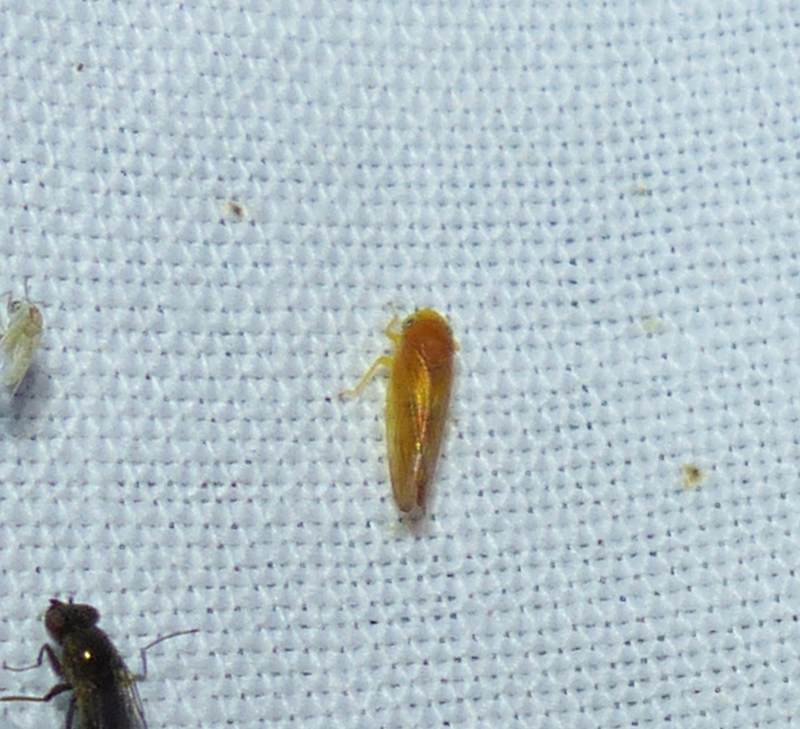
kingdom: Animalia
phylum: Arthropoda
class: Insecta
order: Hemiptera
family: Cicadellidae
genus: Colladonus
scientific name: Colladonus setaceus
